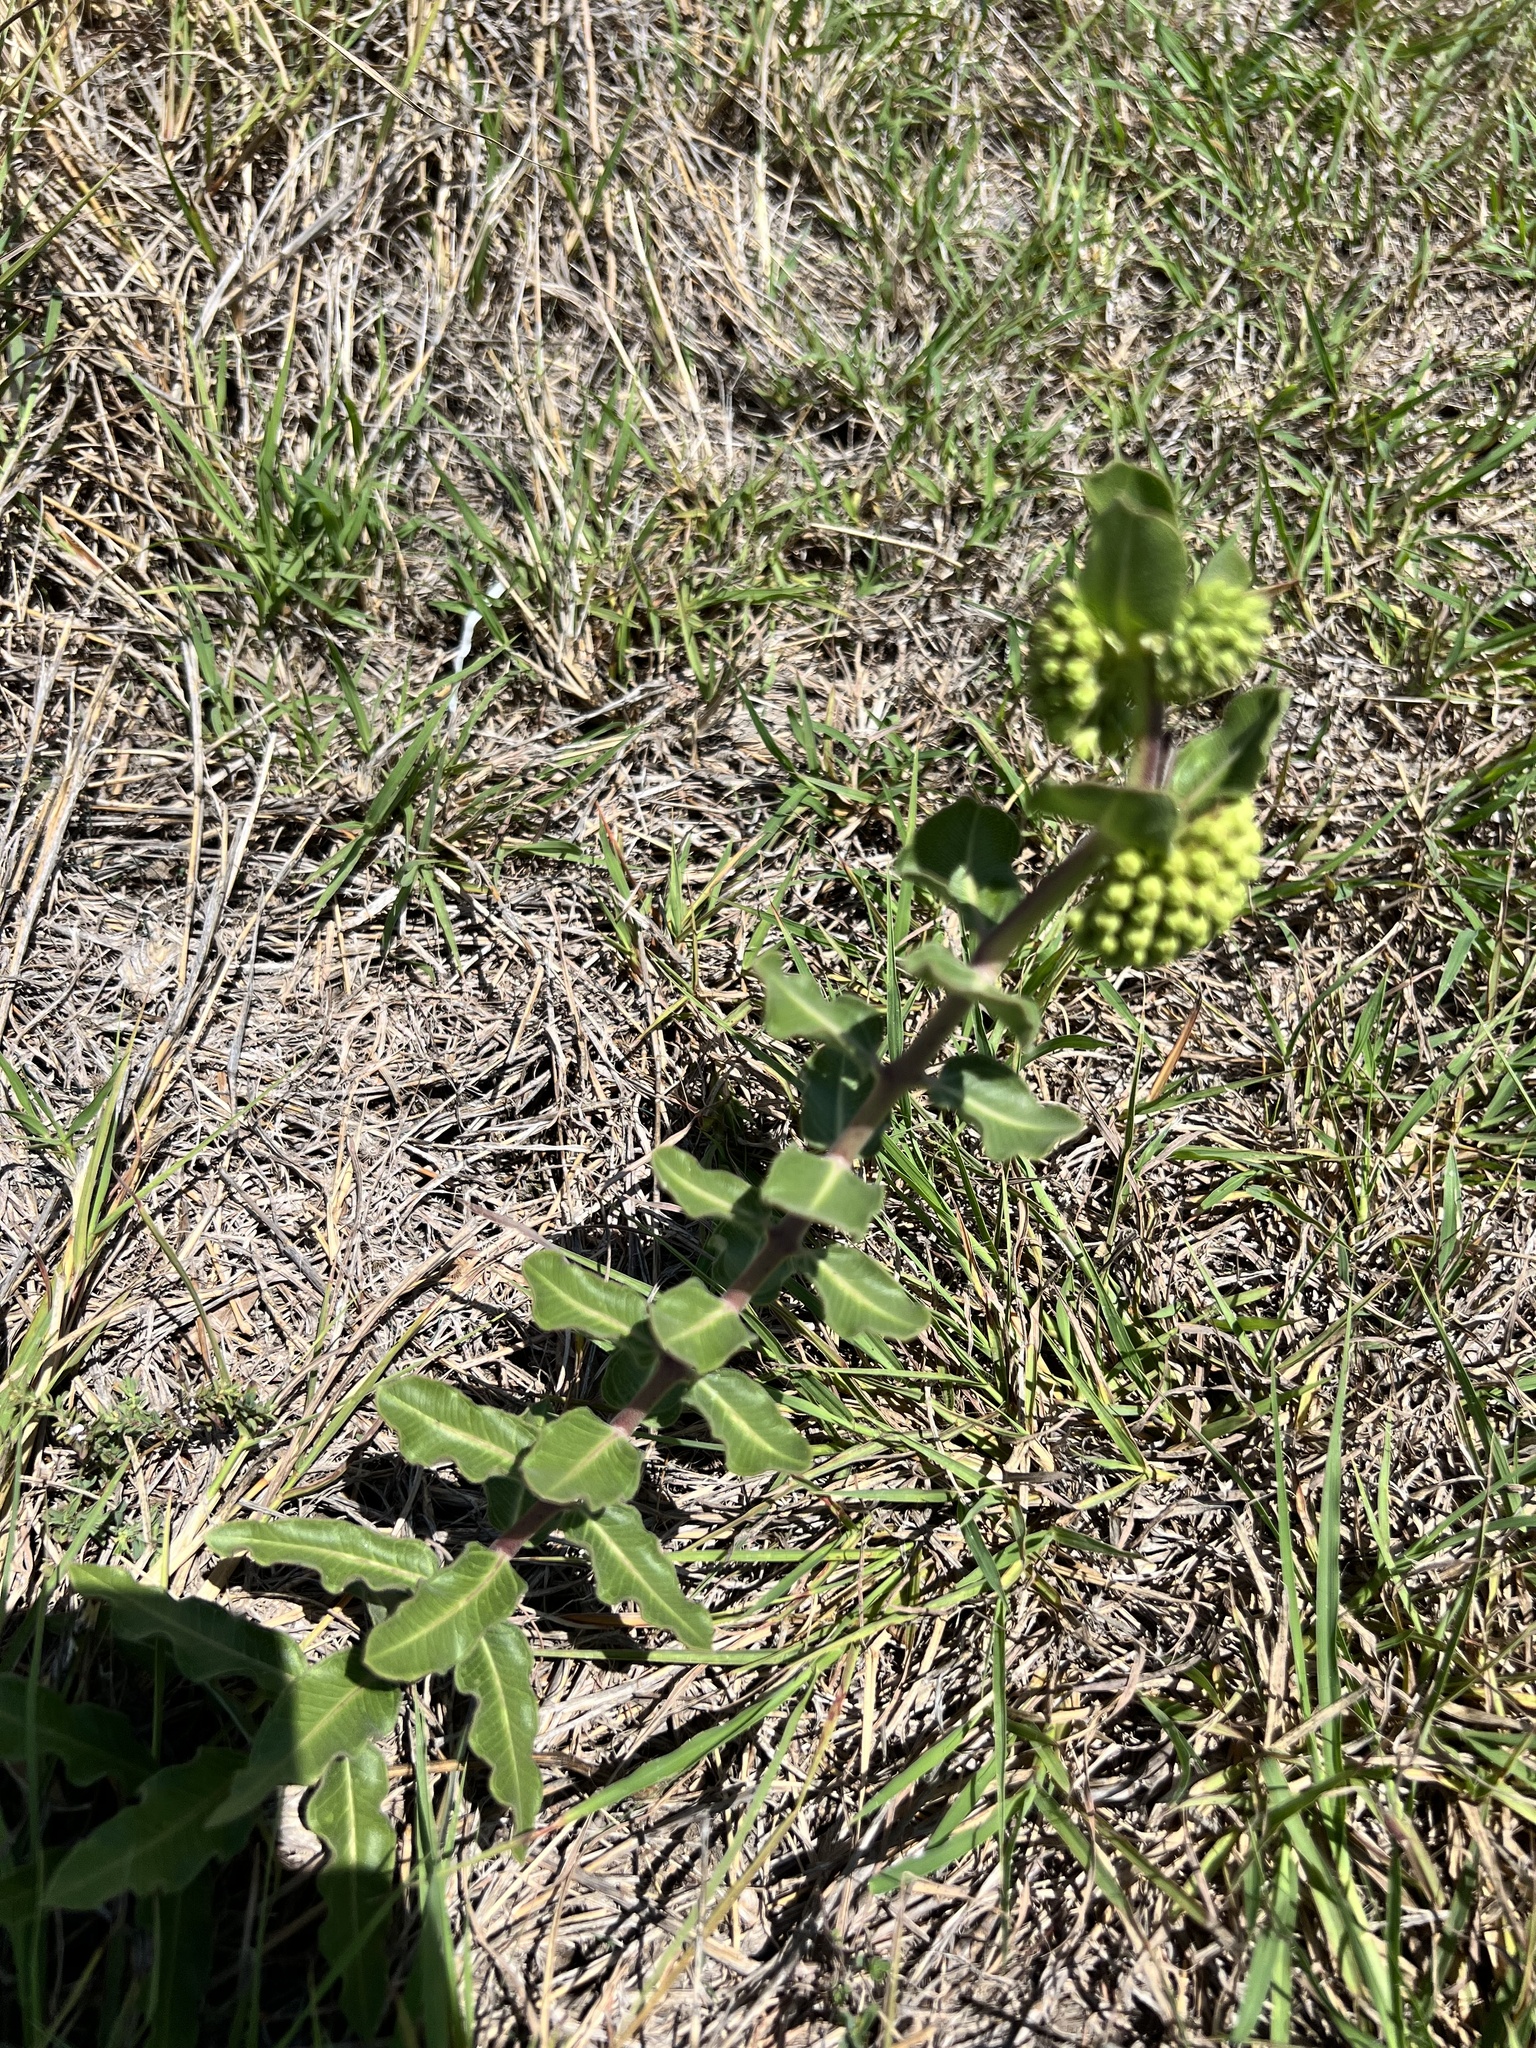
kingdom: Plantae
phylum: Tracheophyta
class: Magnoliopsida
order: Gentianales
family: Apocynaceae
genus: Asclepias
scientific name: Asclepias viridiflora
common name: Green comet milkweed
